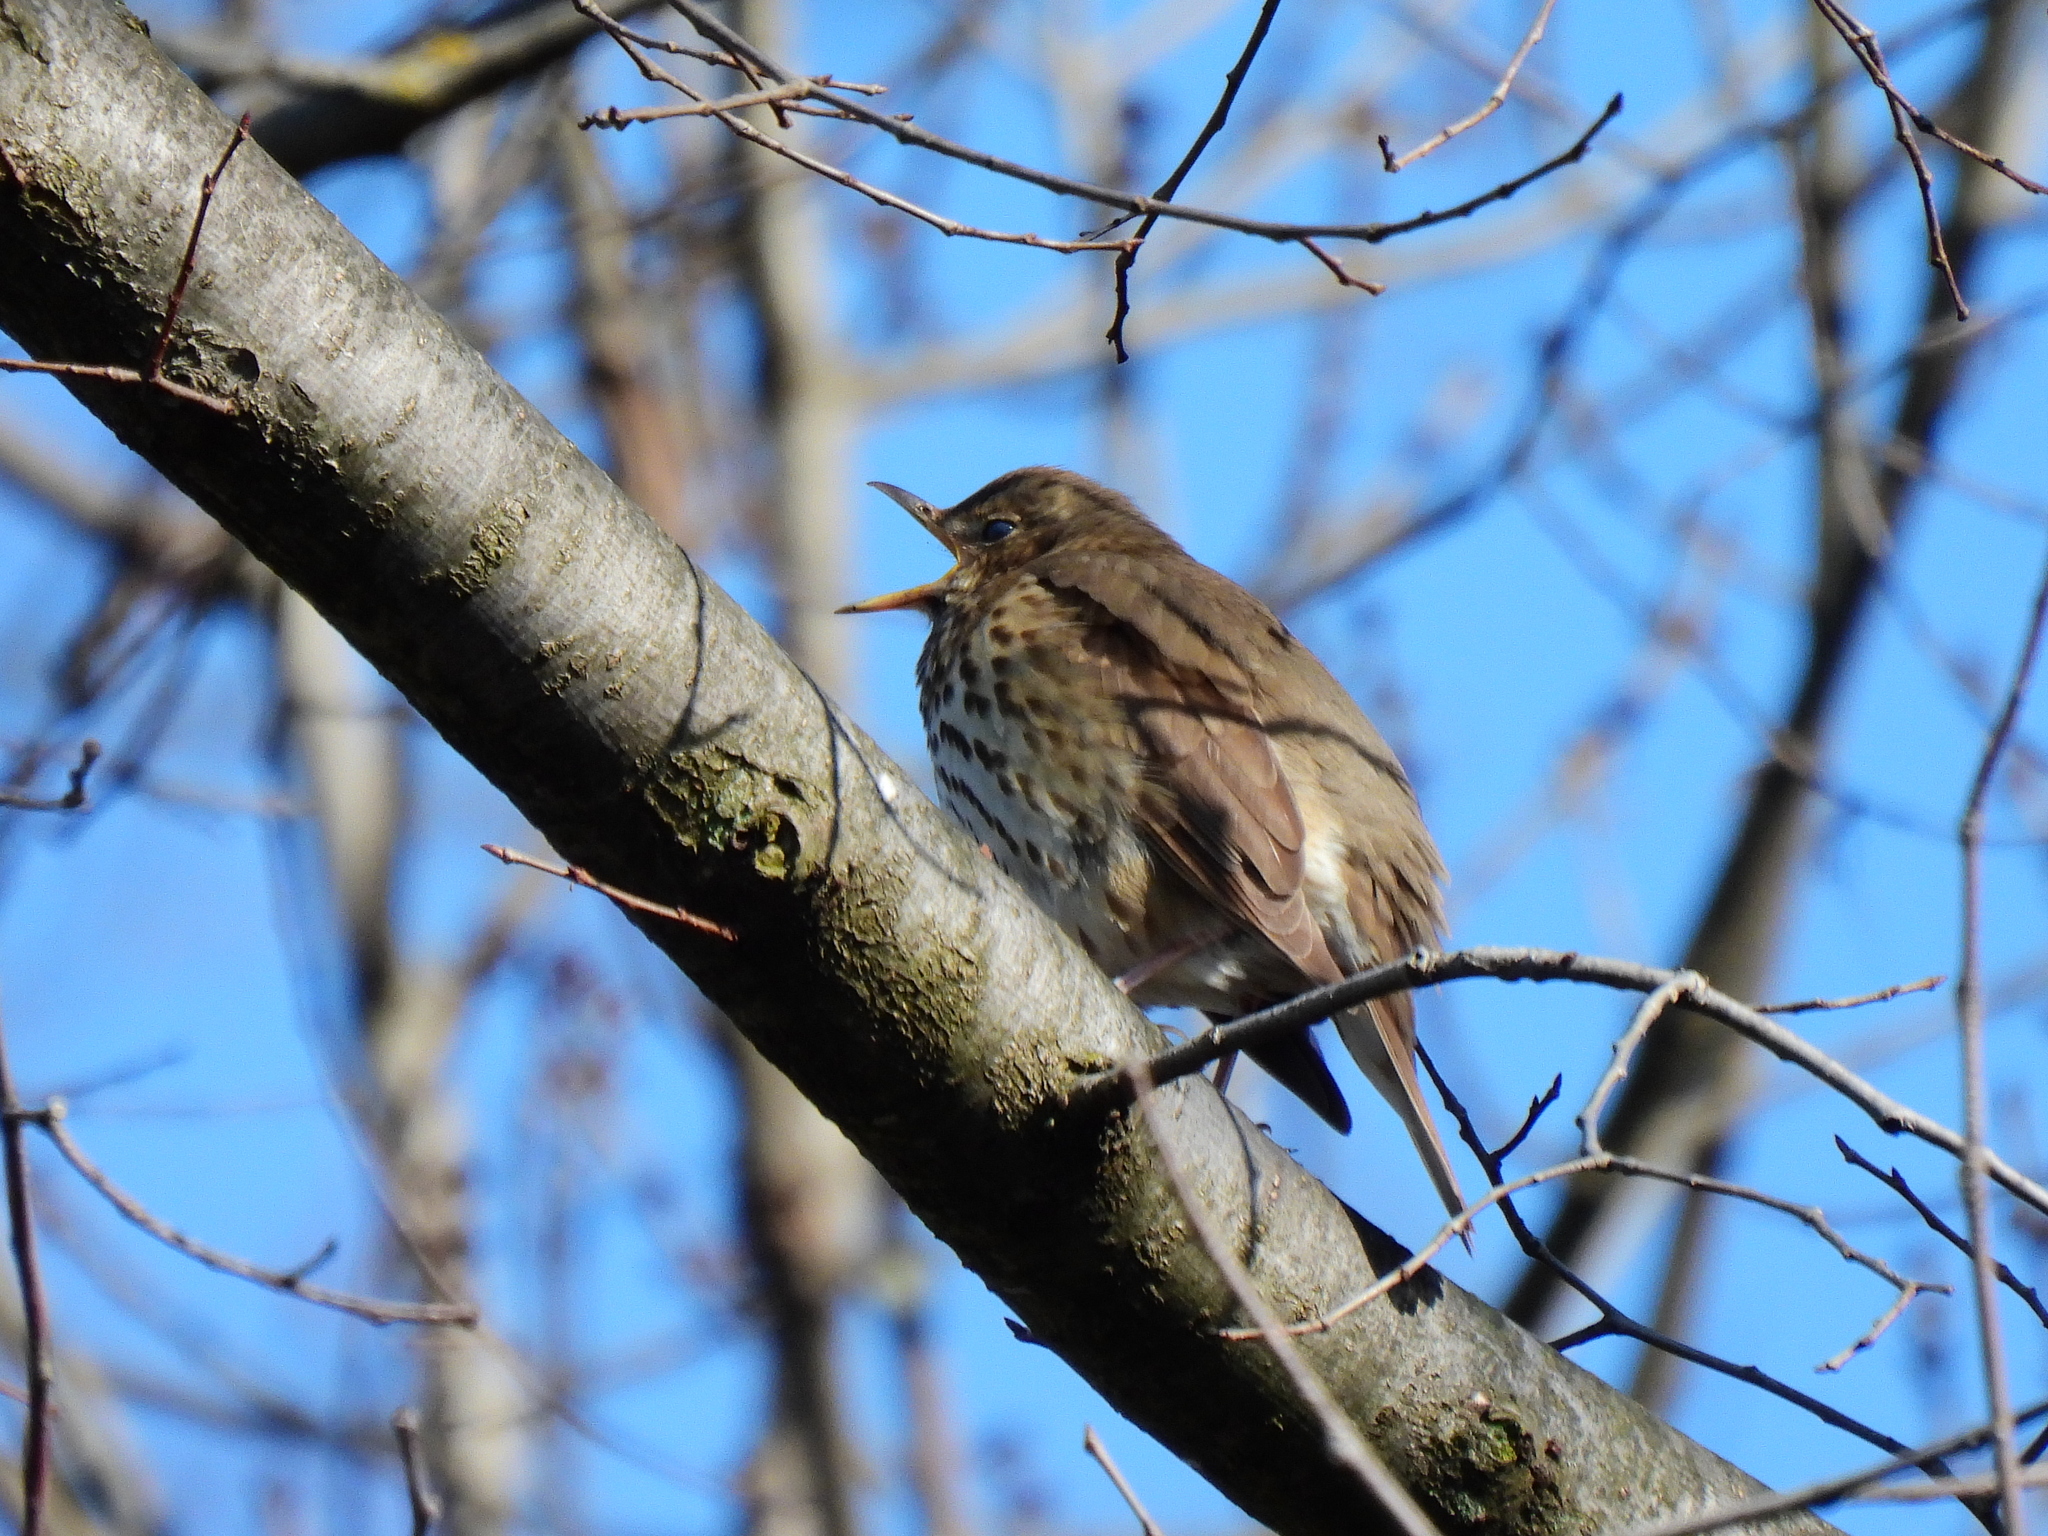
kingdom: Animalia
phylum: Chordata
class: Aves
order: Passeriformes
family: Turdidae
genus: Turdus
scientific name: Turdus philomelos
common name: Song thrush
